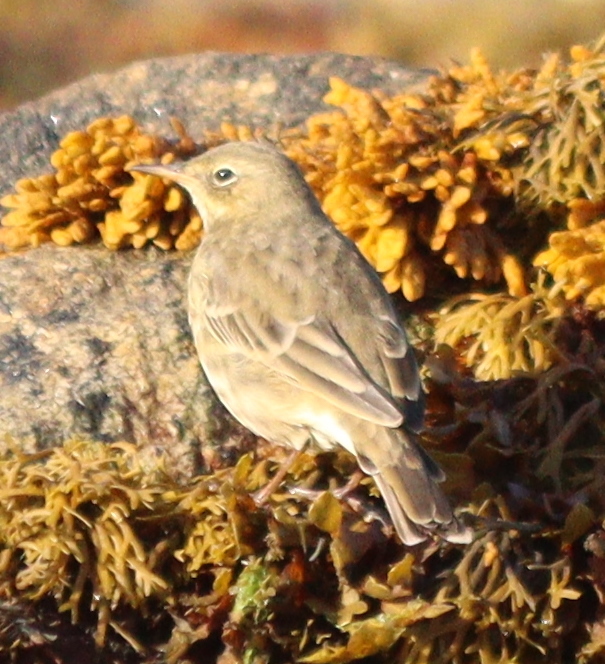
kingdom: Animalia
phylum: Chordata
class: Aves
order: Passeriformes
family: Motacillidae
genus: Anthus
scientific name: Anthus petrosus
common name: Eurasian rock pipit
